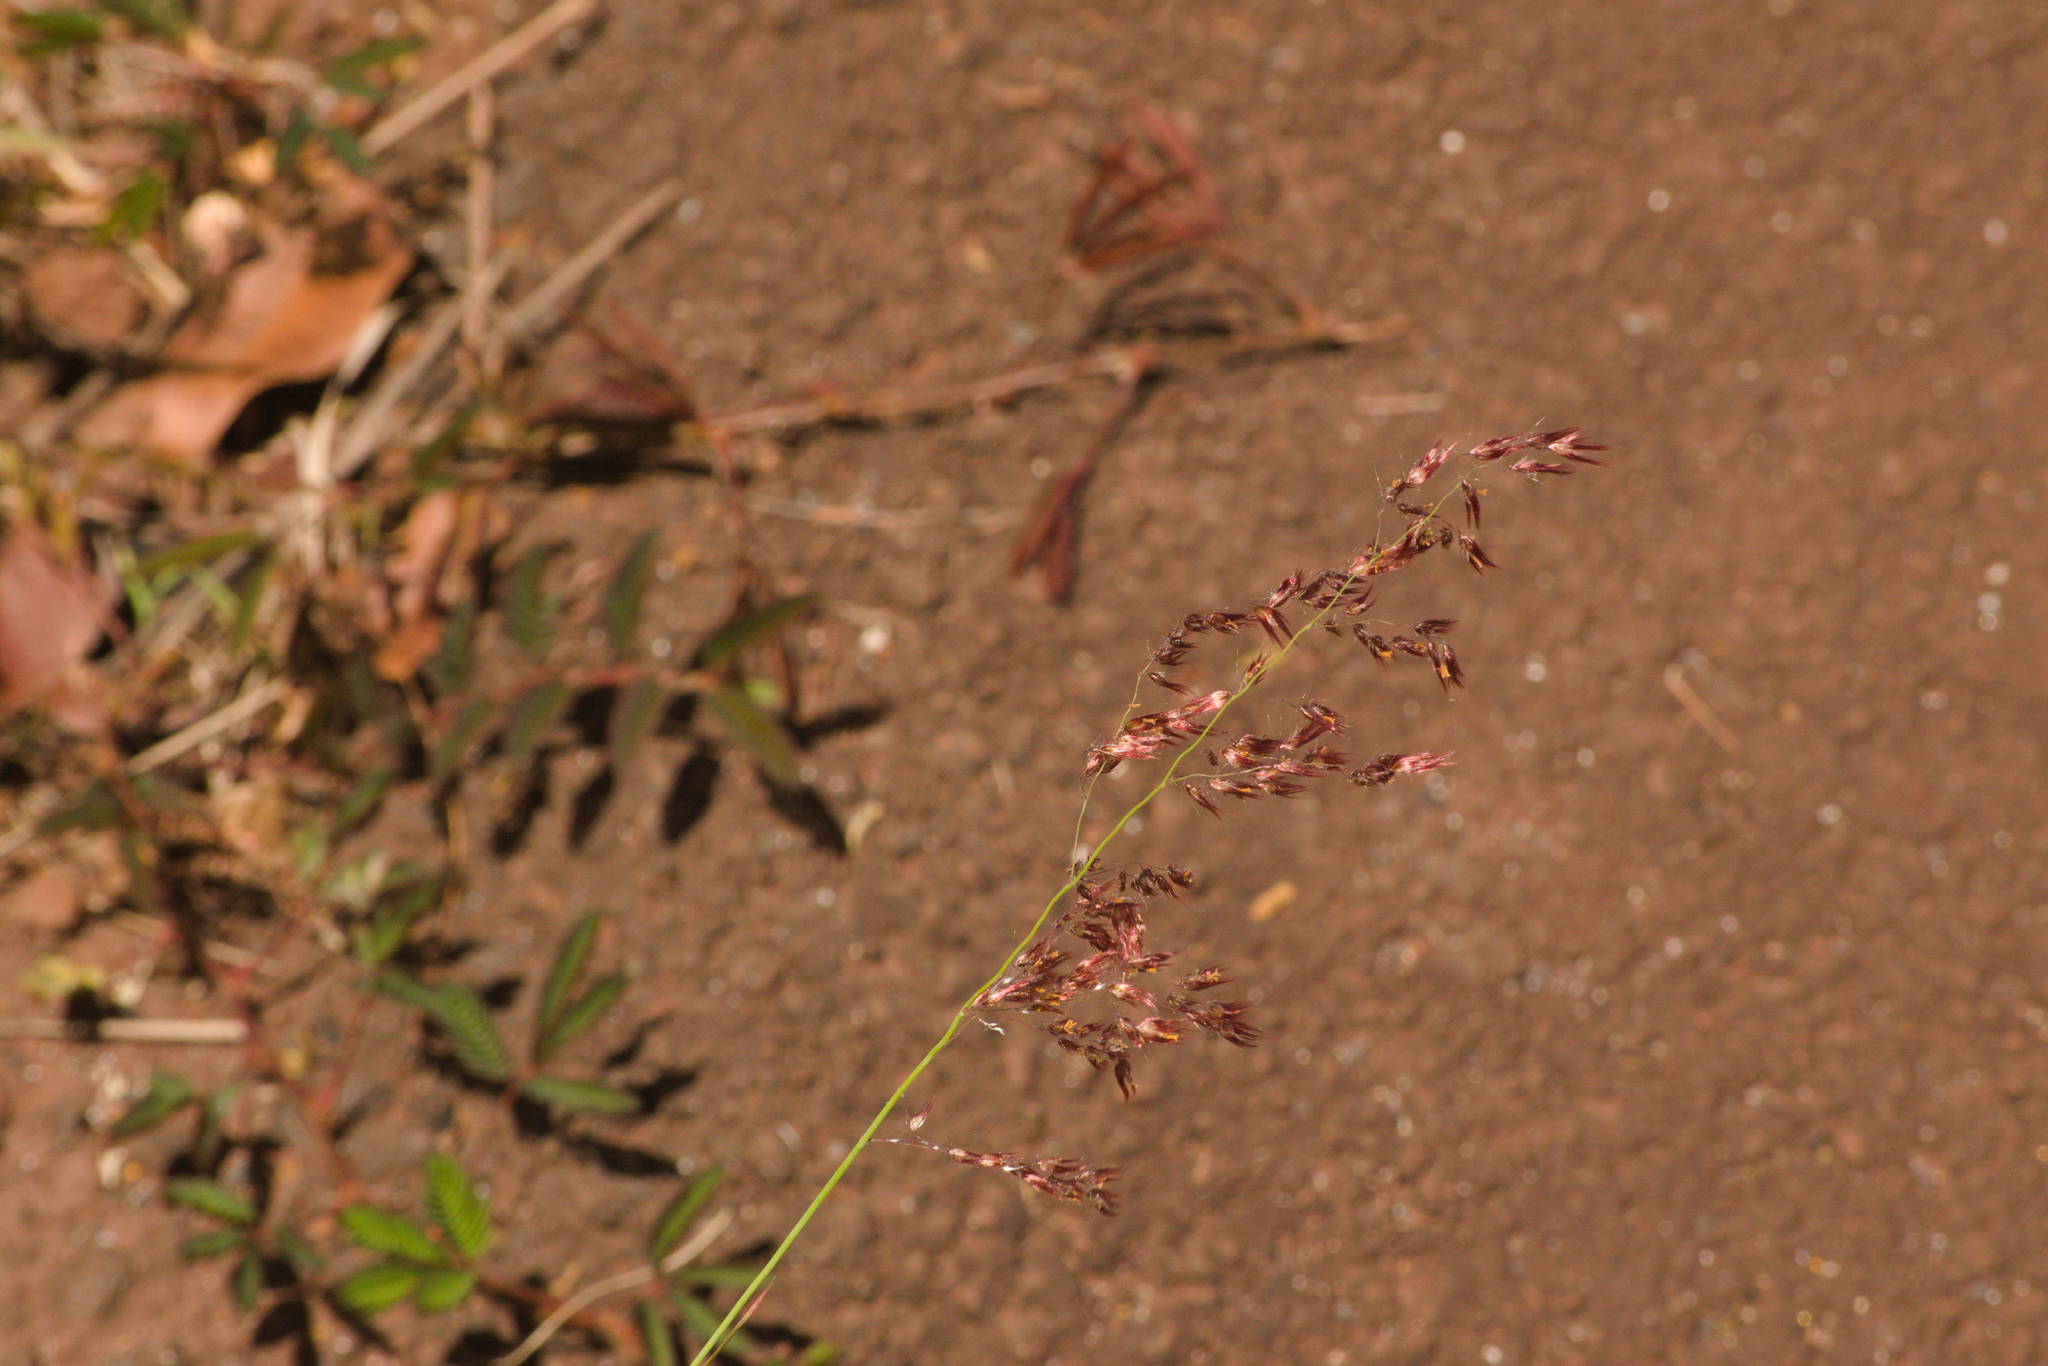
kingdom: Plantae
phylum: Tracheophyta
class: Liliopsida
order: Poales
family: Poaceae
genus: Melinis
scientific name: Melinis repens
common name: Rose natal grass
